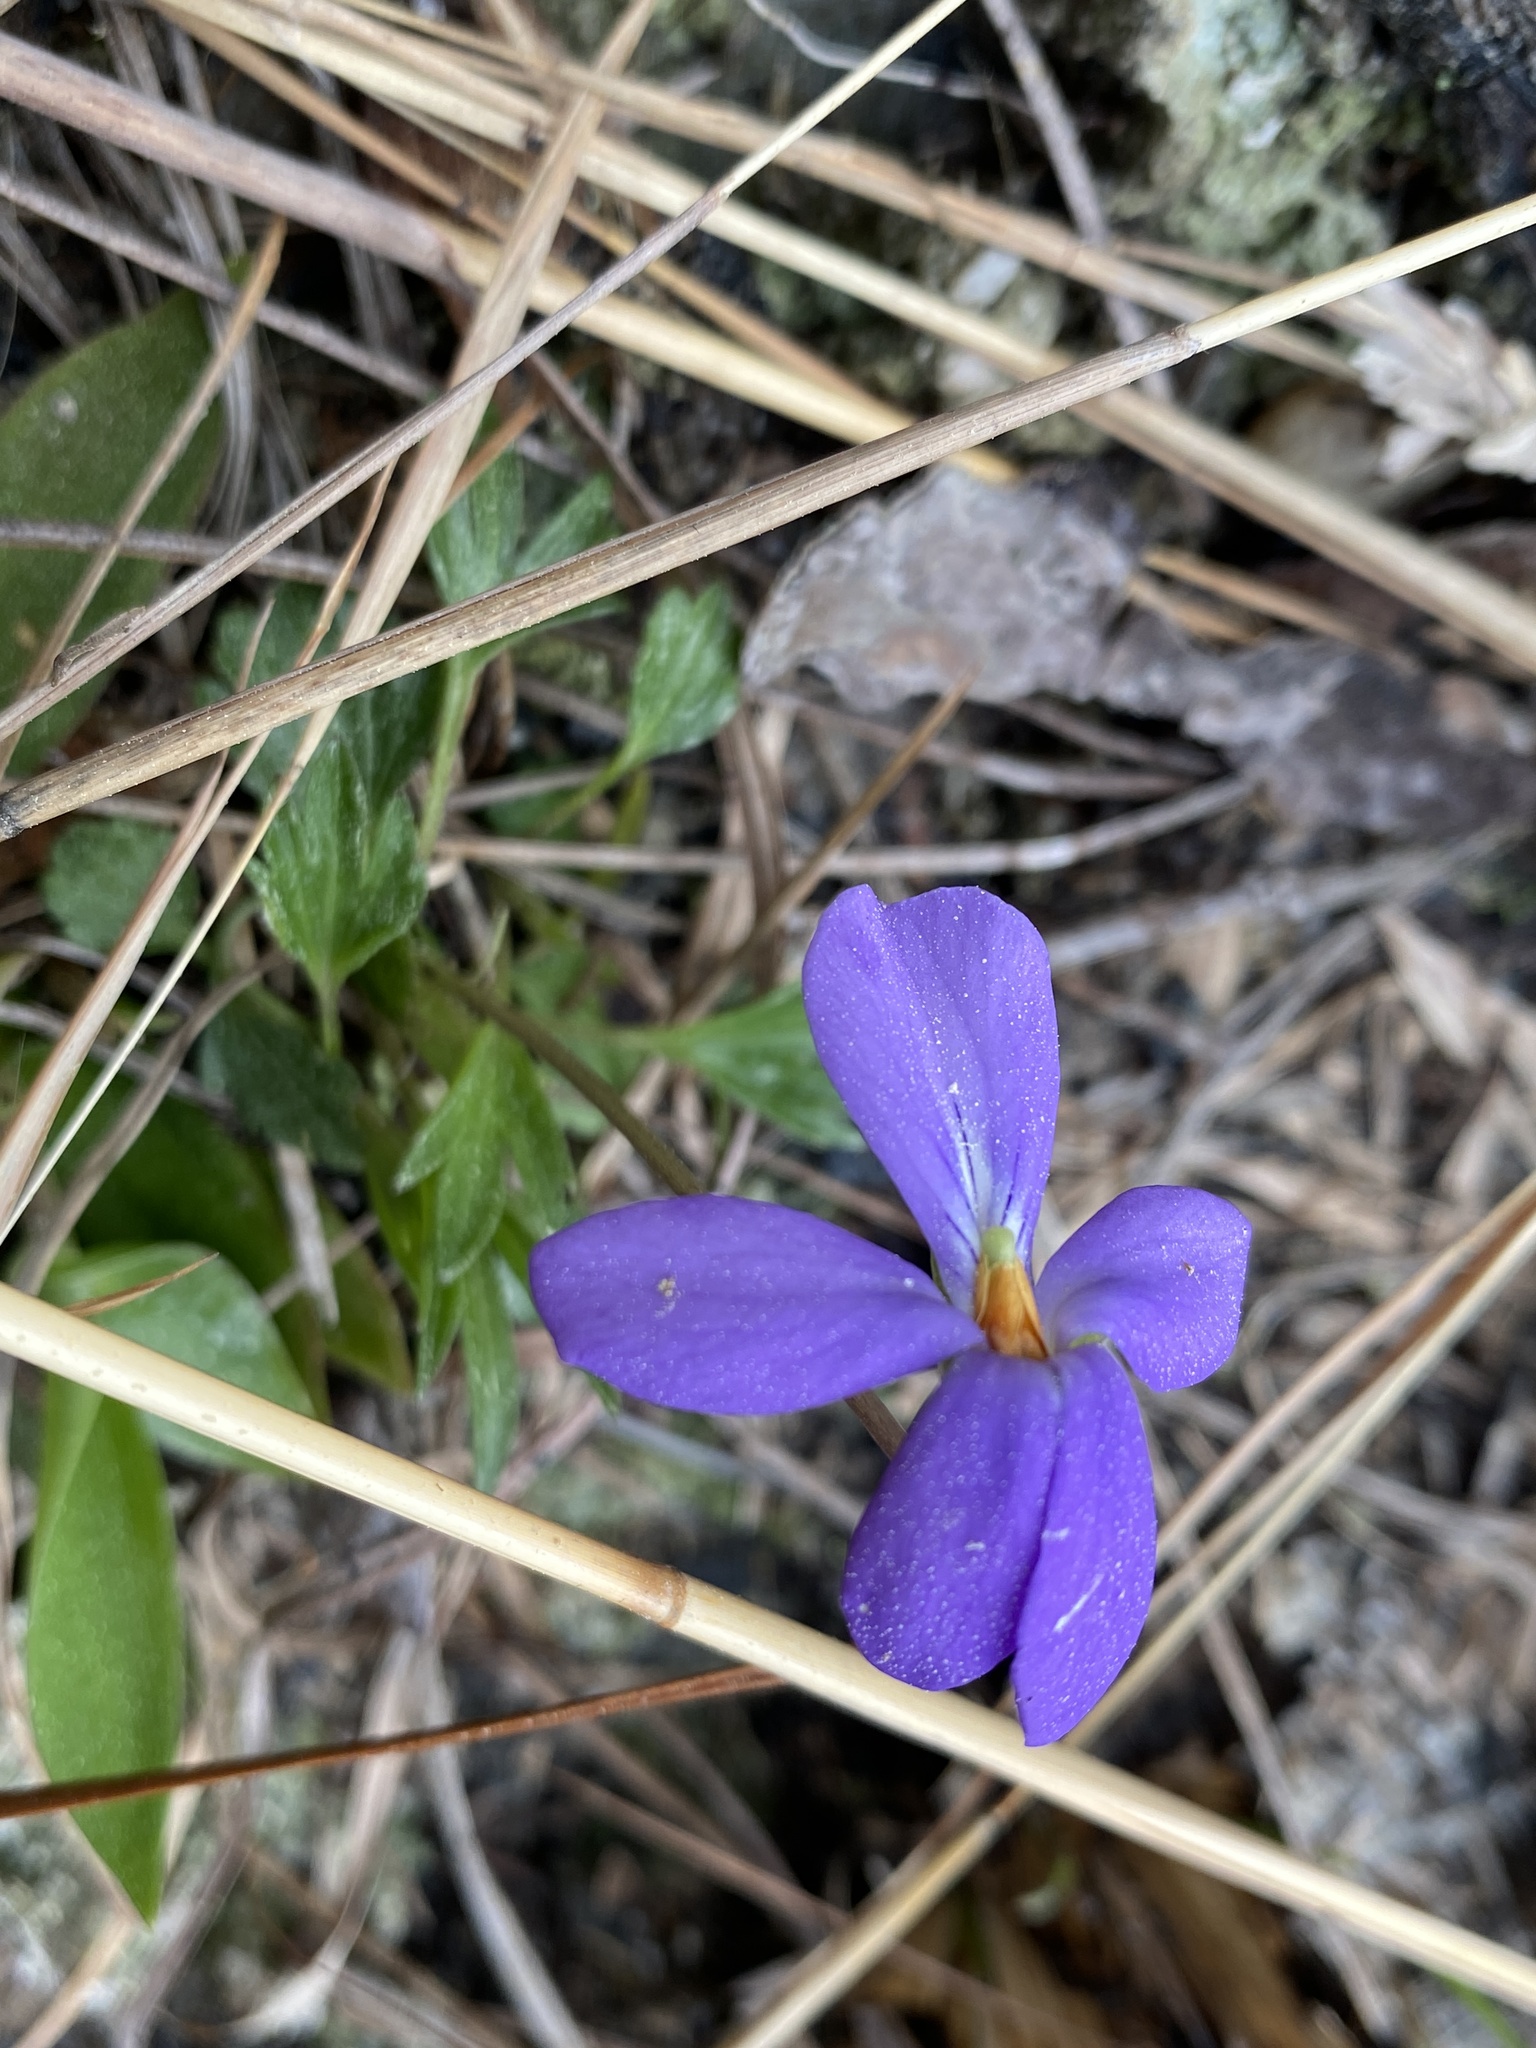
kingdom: Plantae
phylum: Tracheophyta
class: Magnoliopsida
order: Malpighiales
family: Violaceae
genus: Viola
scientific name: Viola pedata
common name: Pansy violet
